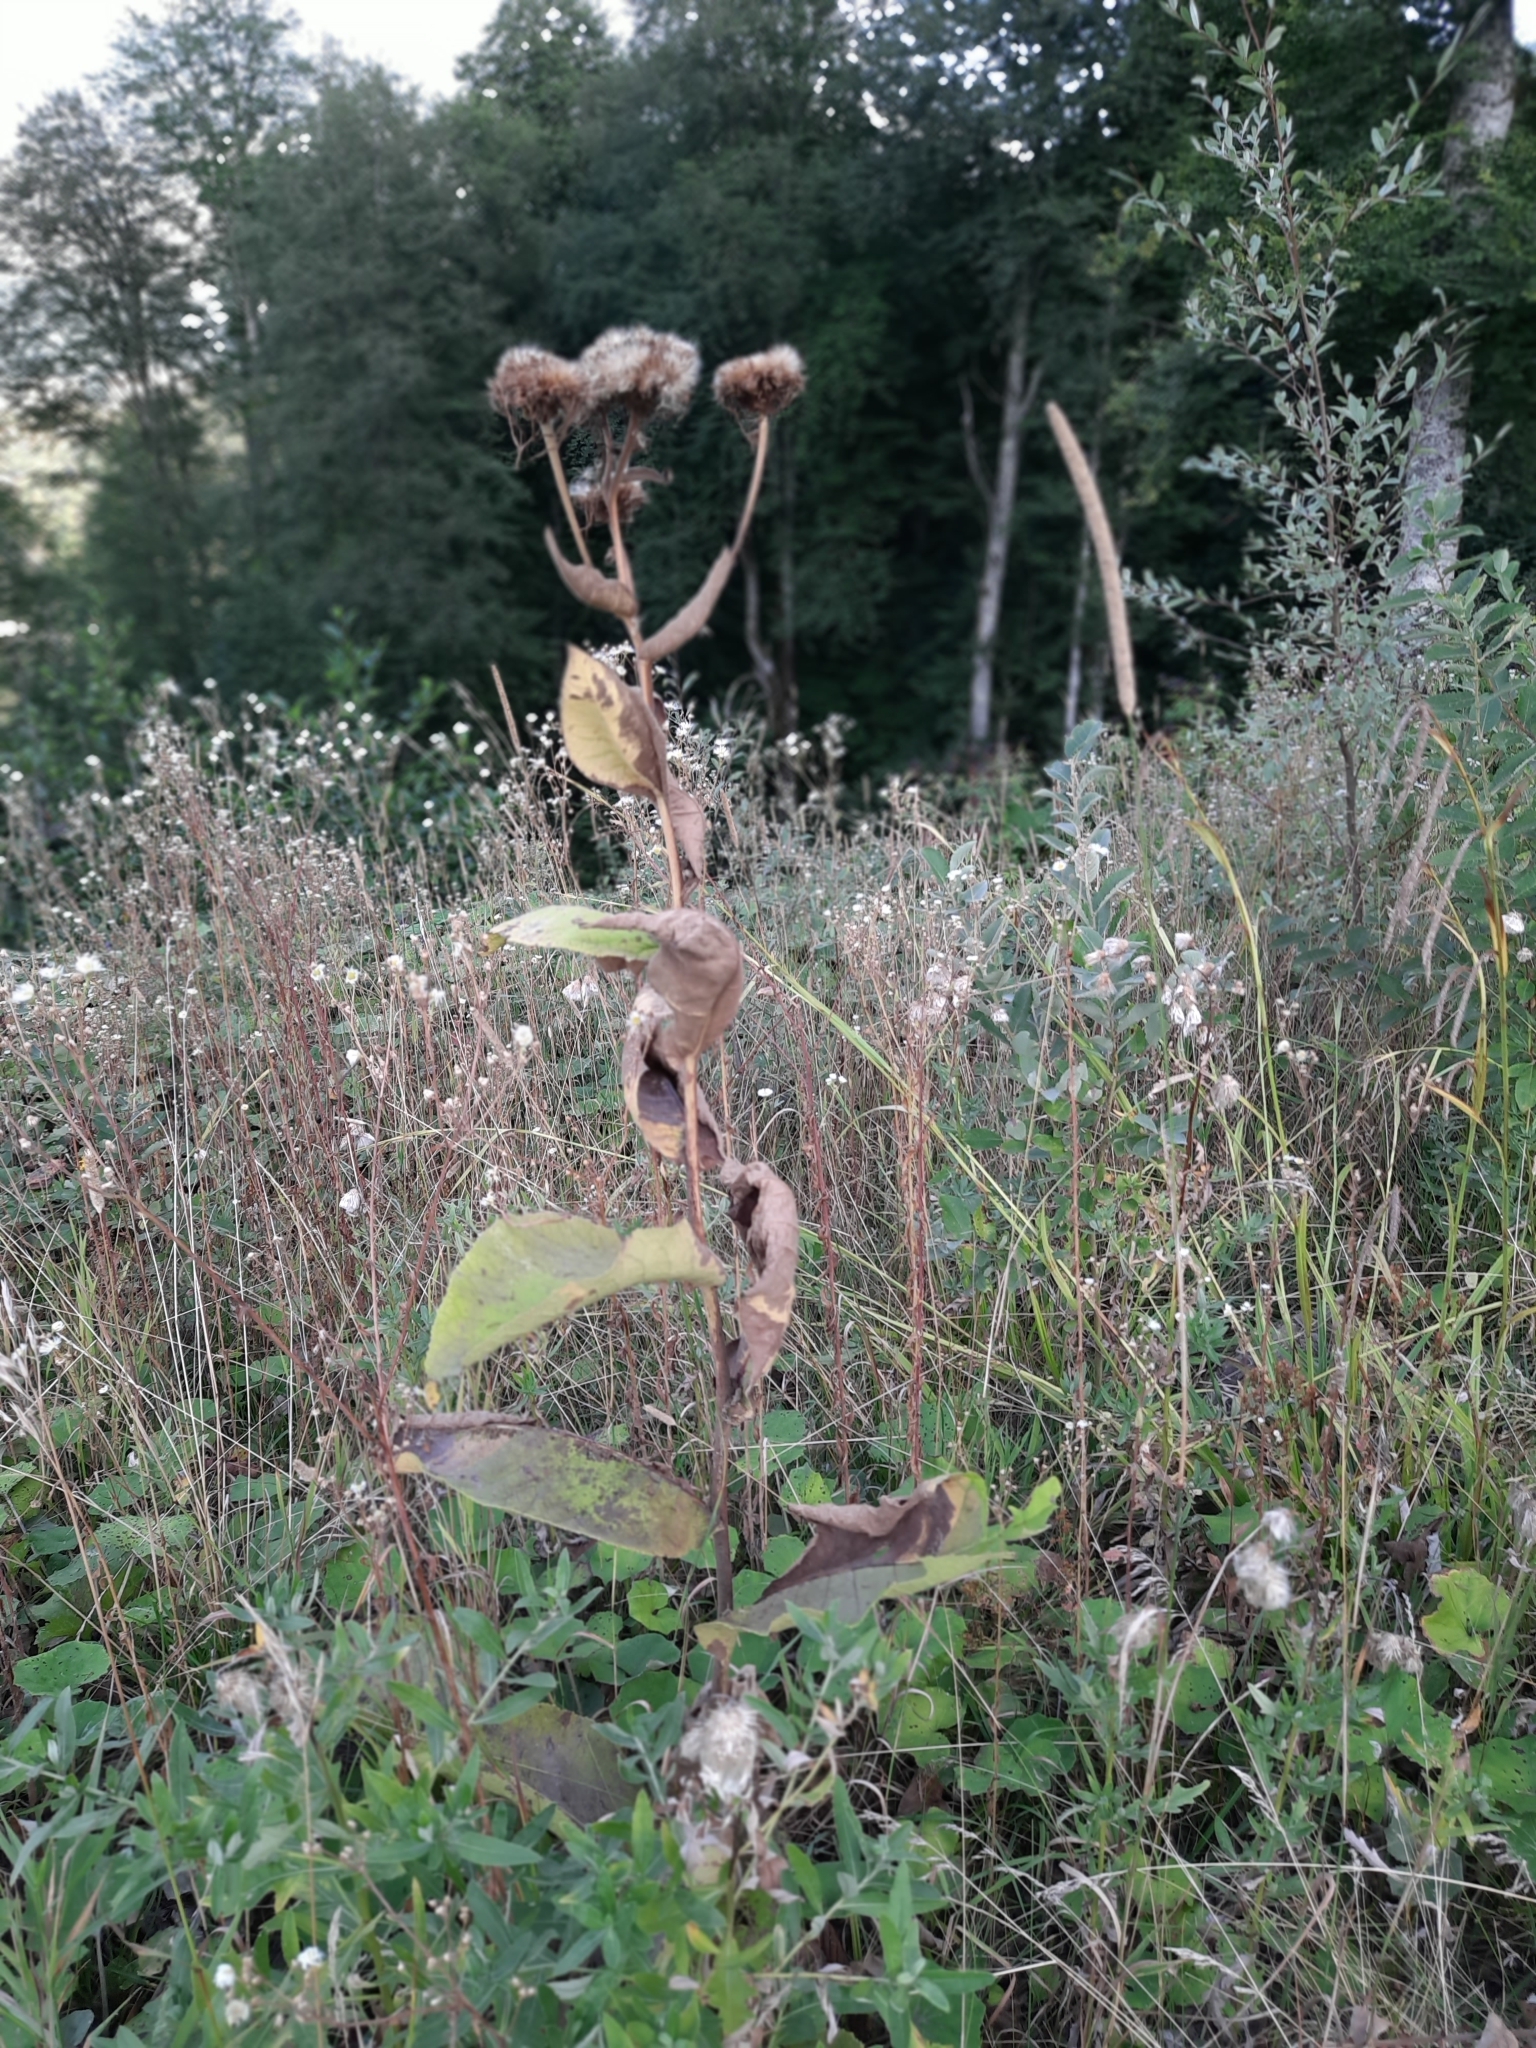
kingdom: Plantae
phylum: Tracheophyta
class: Magnoliopsida
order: Asterales
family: Asteraceae
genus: Inula
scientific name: Inula helenium
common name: Elecampane
